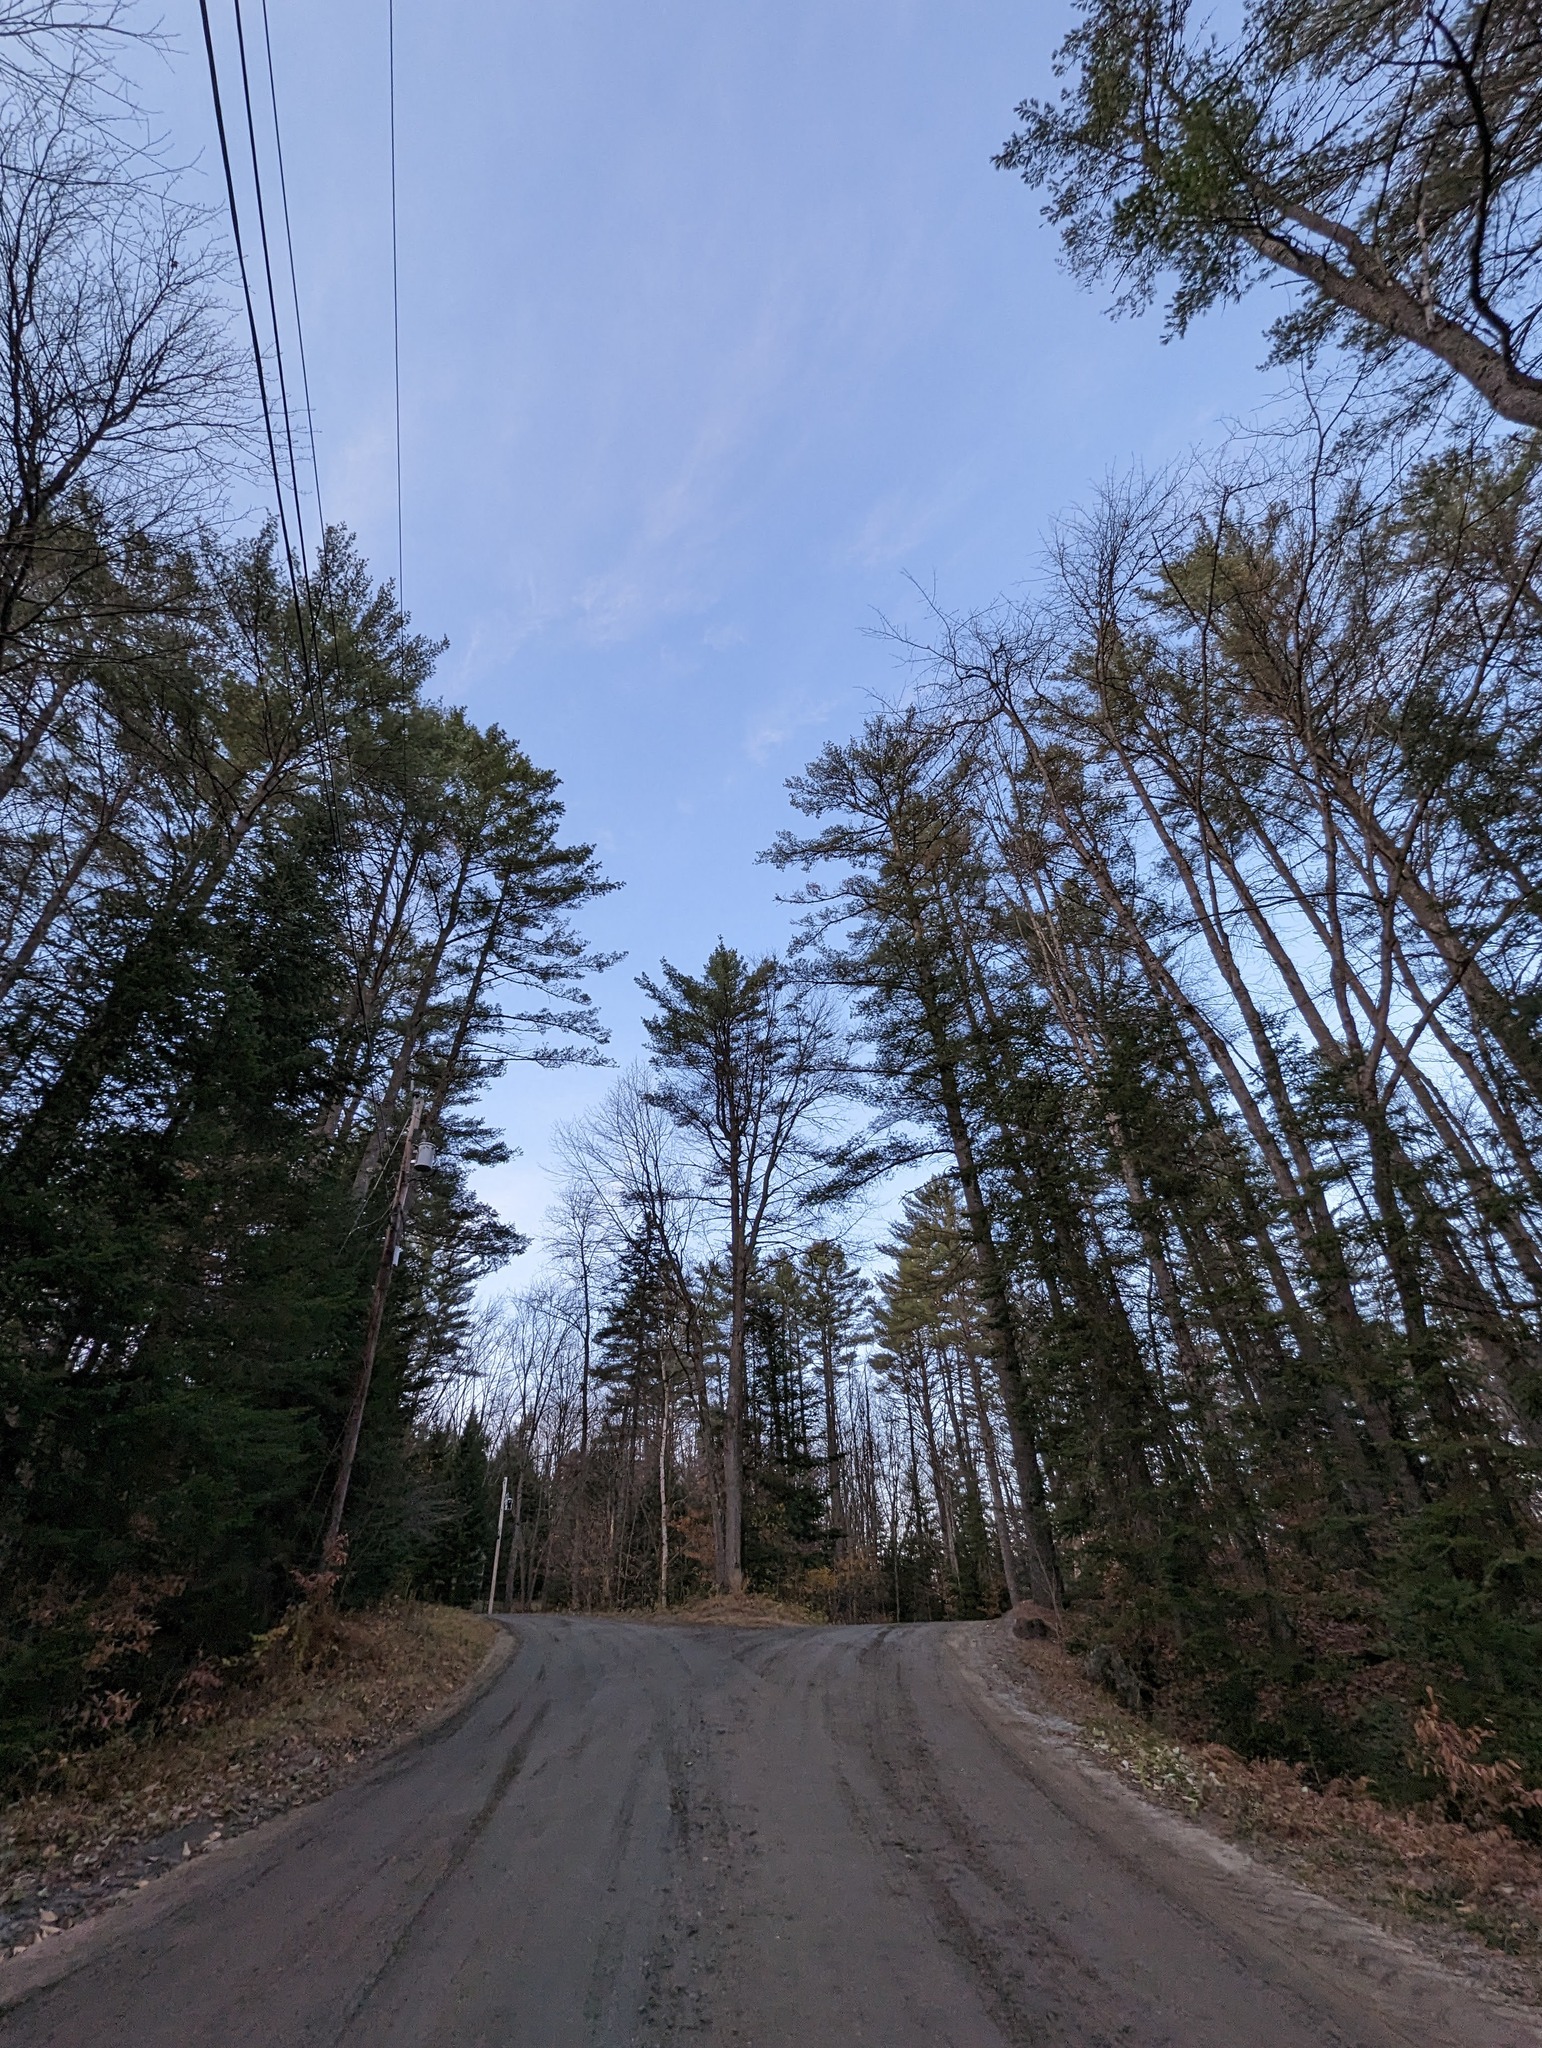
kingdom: Plantae
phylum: Tracheophyta
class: Pinopsida
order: Pinales
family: Pinaceae
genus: Pinus
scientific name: Pinus strobus
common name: Weymouth pine
